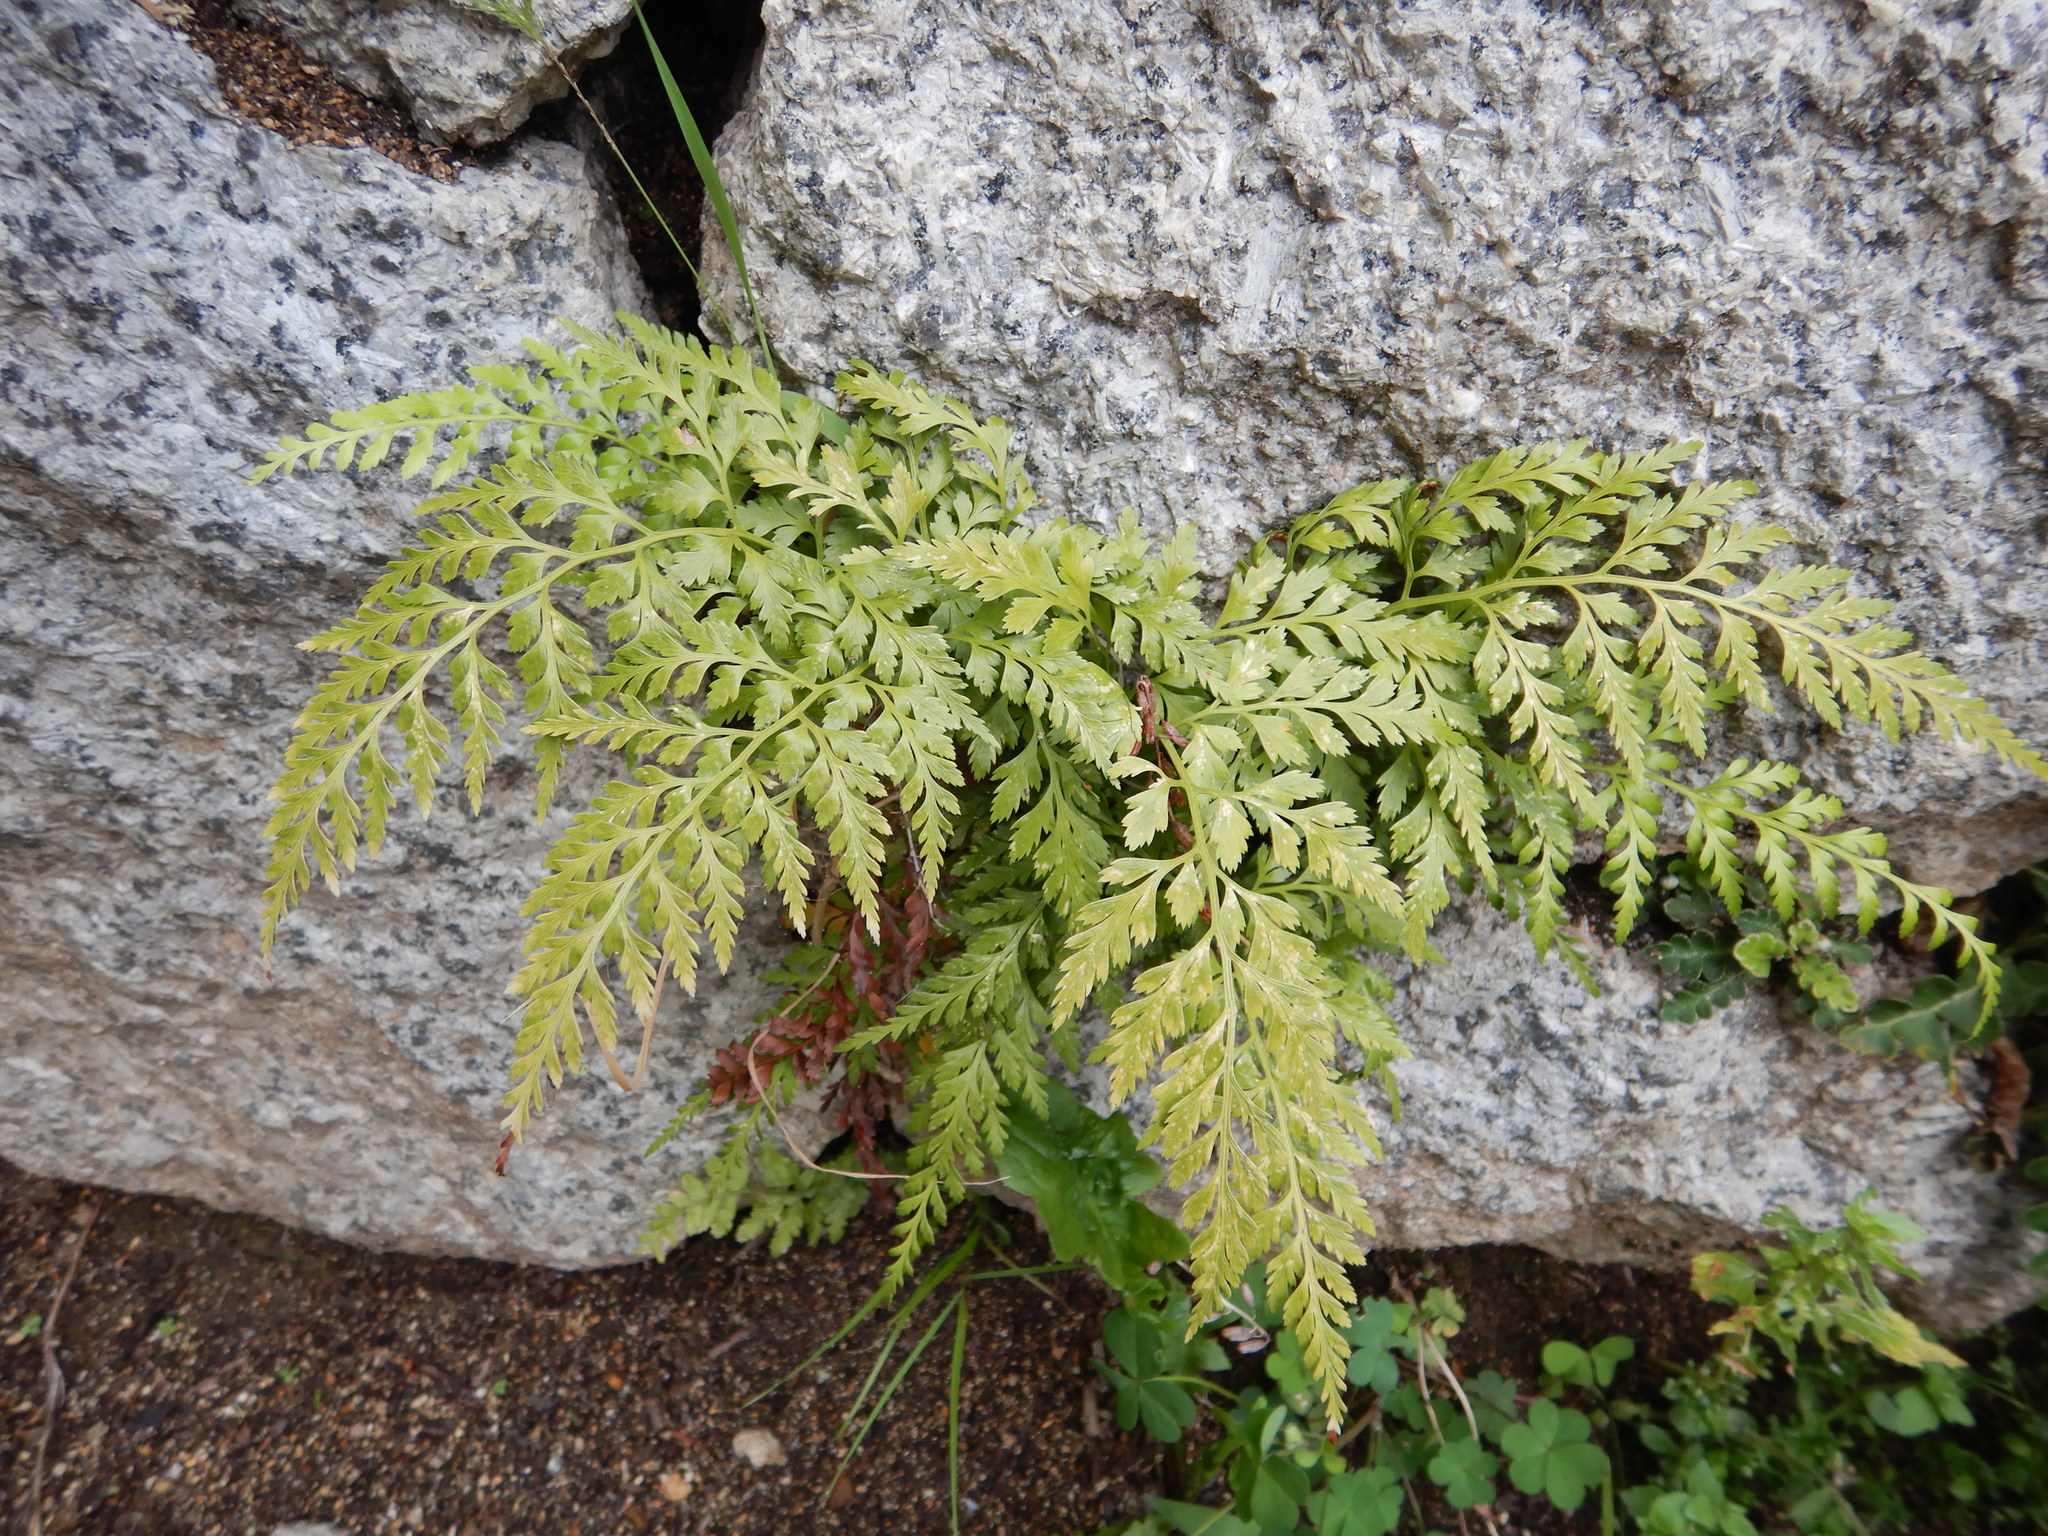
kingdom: Plantae
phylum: Tracheophyta
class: Polypodiopsida
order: Polypodiales
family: Aspleniaceae
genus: Asplenium
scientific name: Asplenium onopteris
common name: Irish spleenwort
